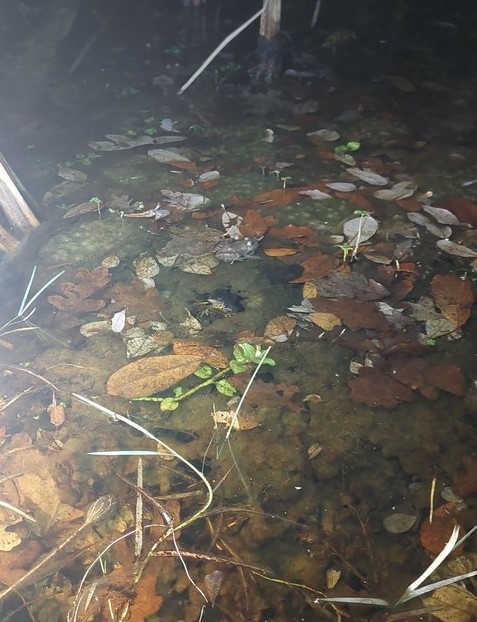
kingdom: Animalia
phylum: Chordata
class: Amphibia
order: Caudata
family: Salamandridae
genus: Triturus
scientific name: Triturus cristatus
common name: Crested newt
